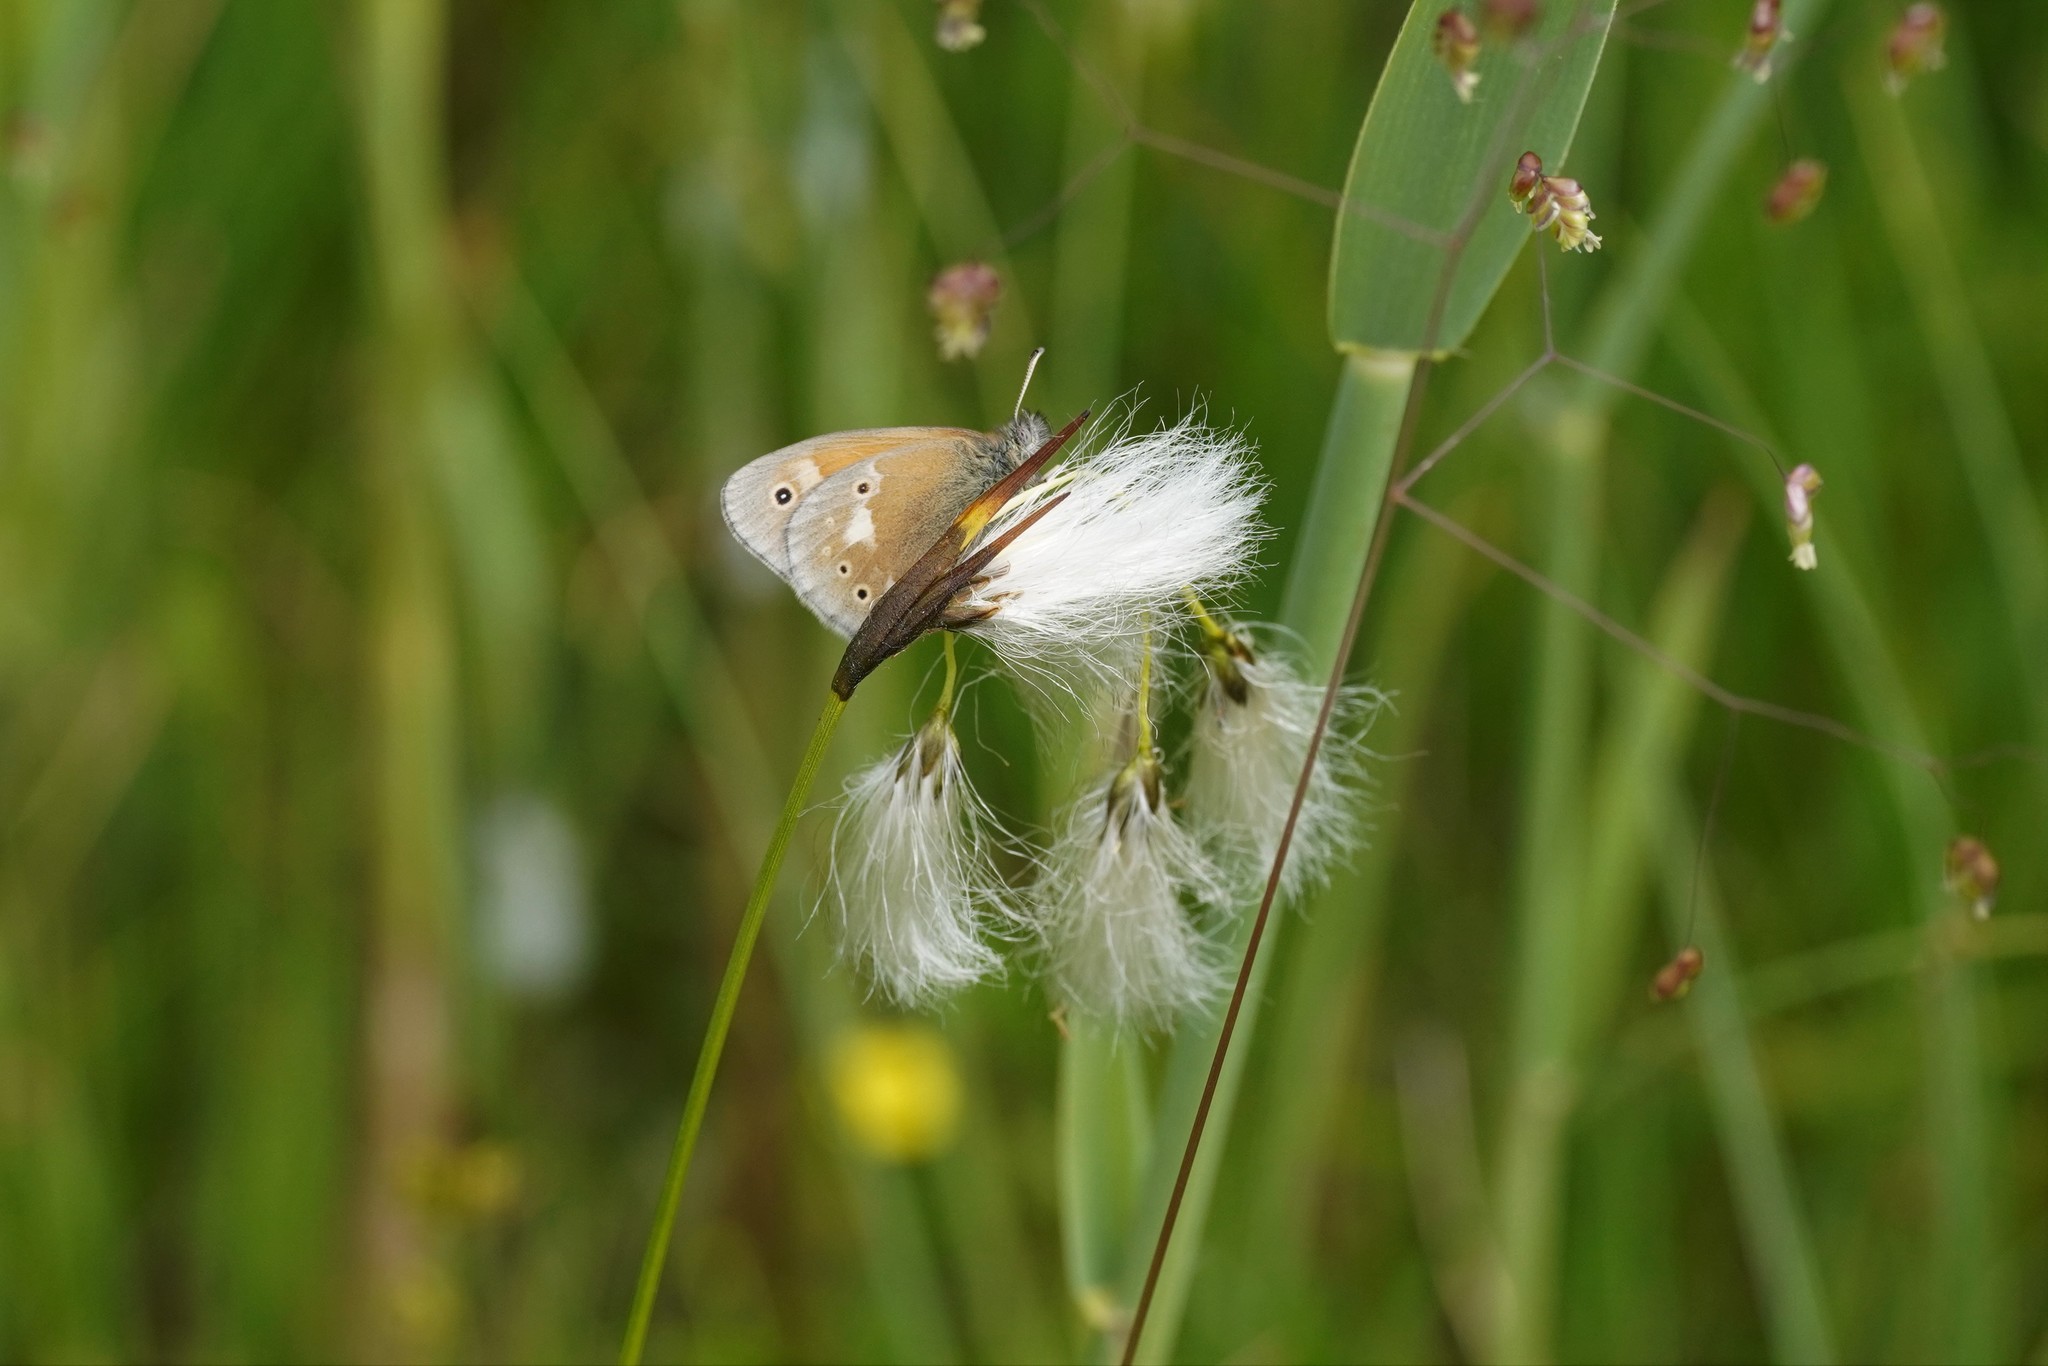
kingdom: Animalia
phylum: Arthropoda
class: Insecta
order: Lepidoptera
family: Nymphalidae
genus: Coenonympha
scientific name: Coenonympha tullia
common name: Large heath
